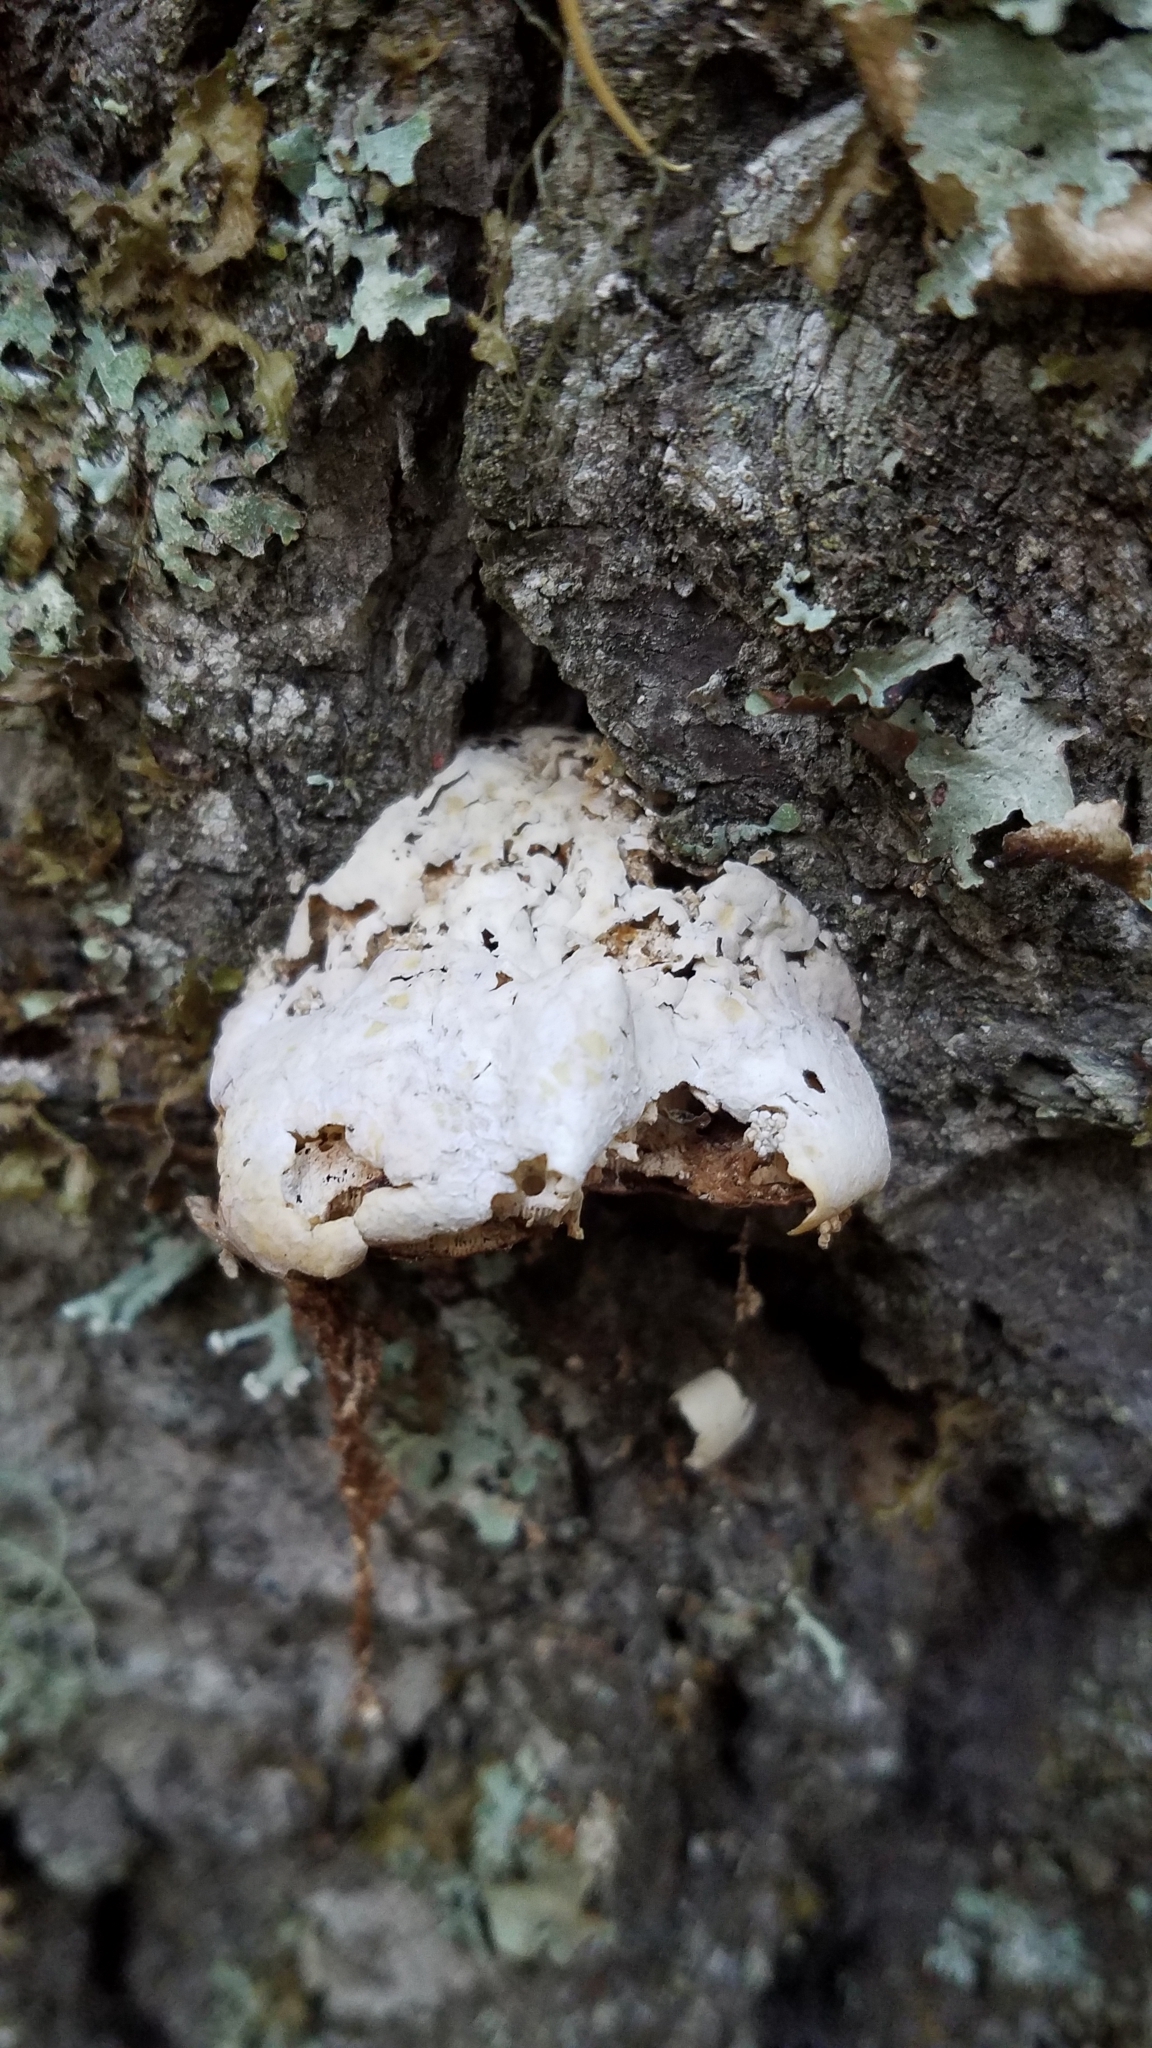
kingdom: Fungi
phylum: Basidiomycota
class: Agaricomycetes
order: Polyporales
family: Polyporaceae
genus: Cryptoporus
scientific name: Cryptoporus volvatus
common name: Veiled polypore
